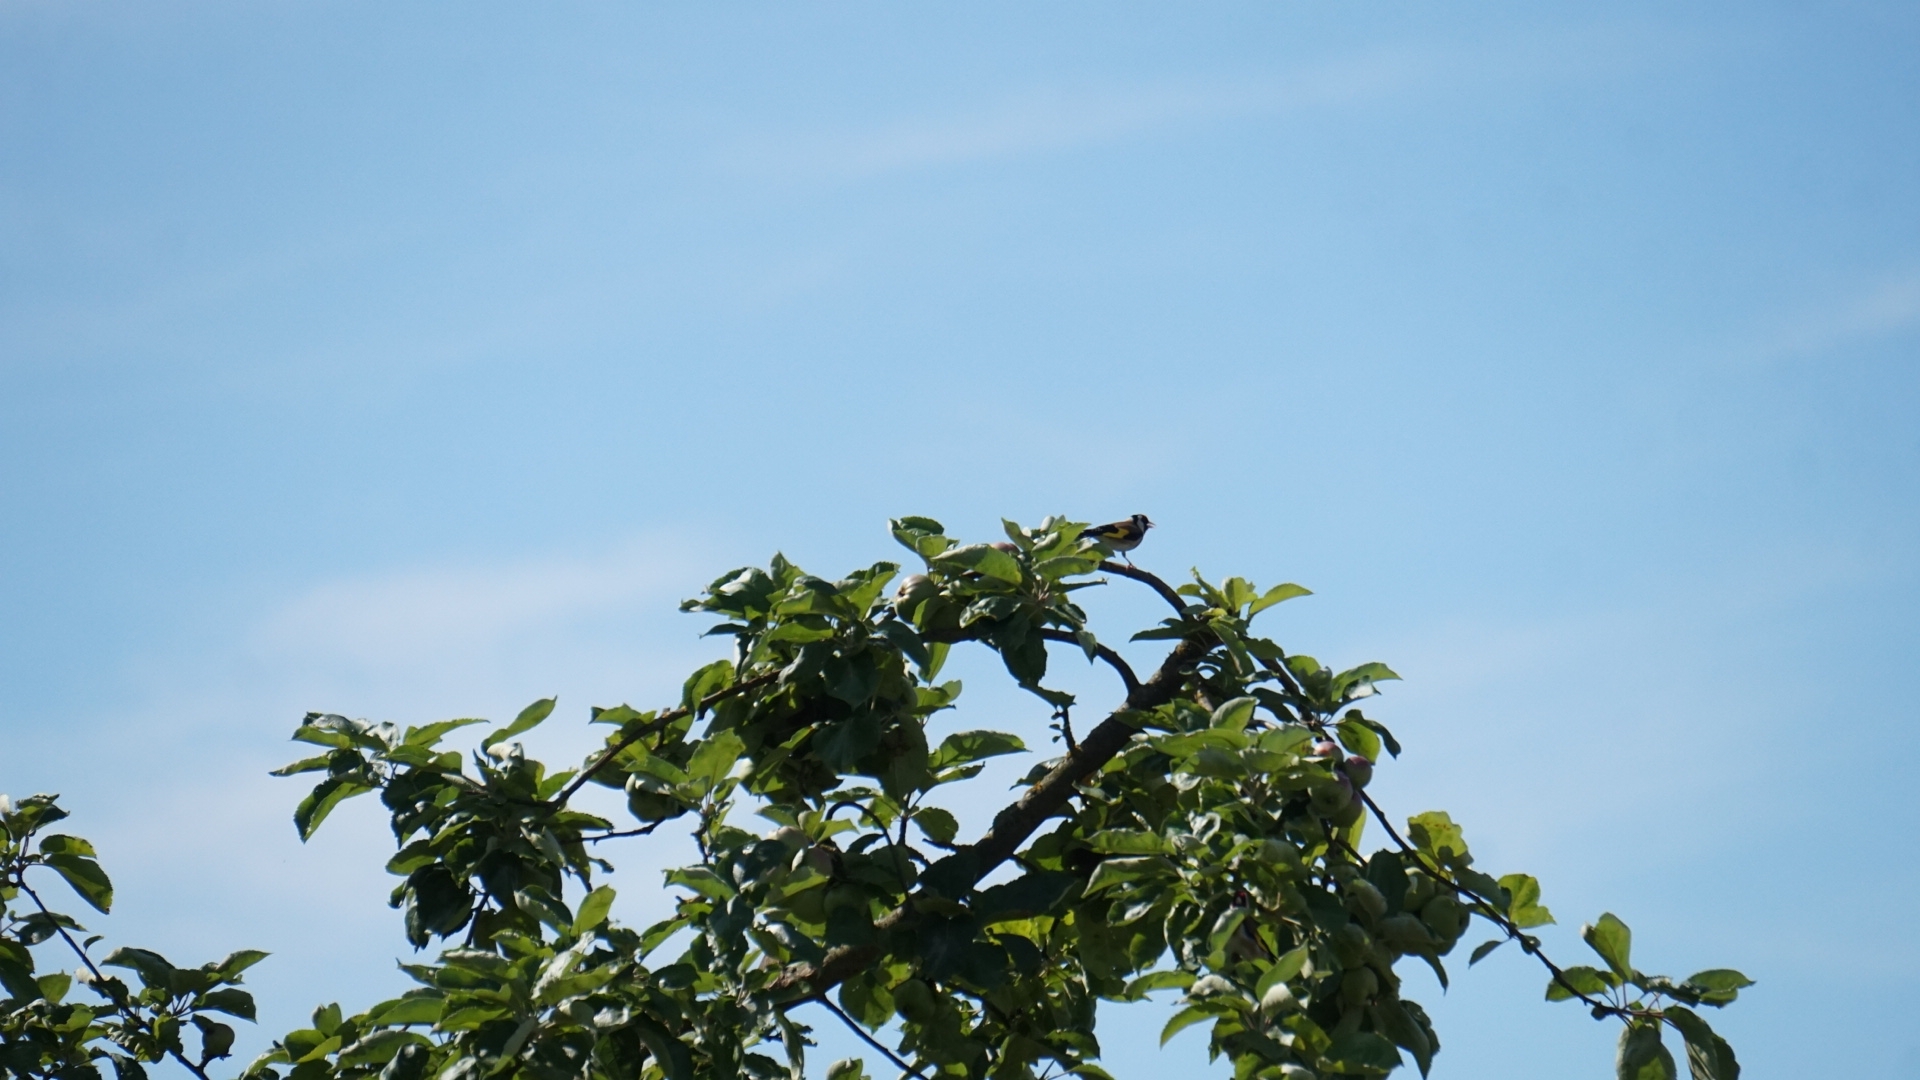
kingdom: Animalia
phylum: Chordata
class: Aves
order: Passeriformes
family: Fringillidae
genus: Carduelis
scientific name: Carduelis carduelis
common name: European goldfinch
